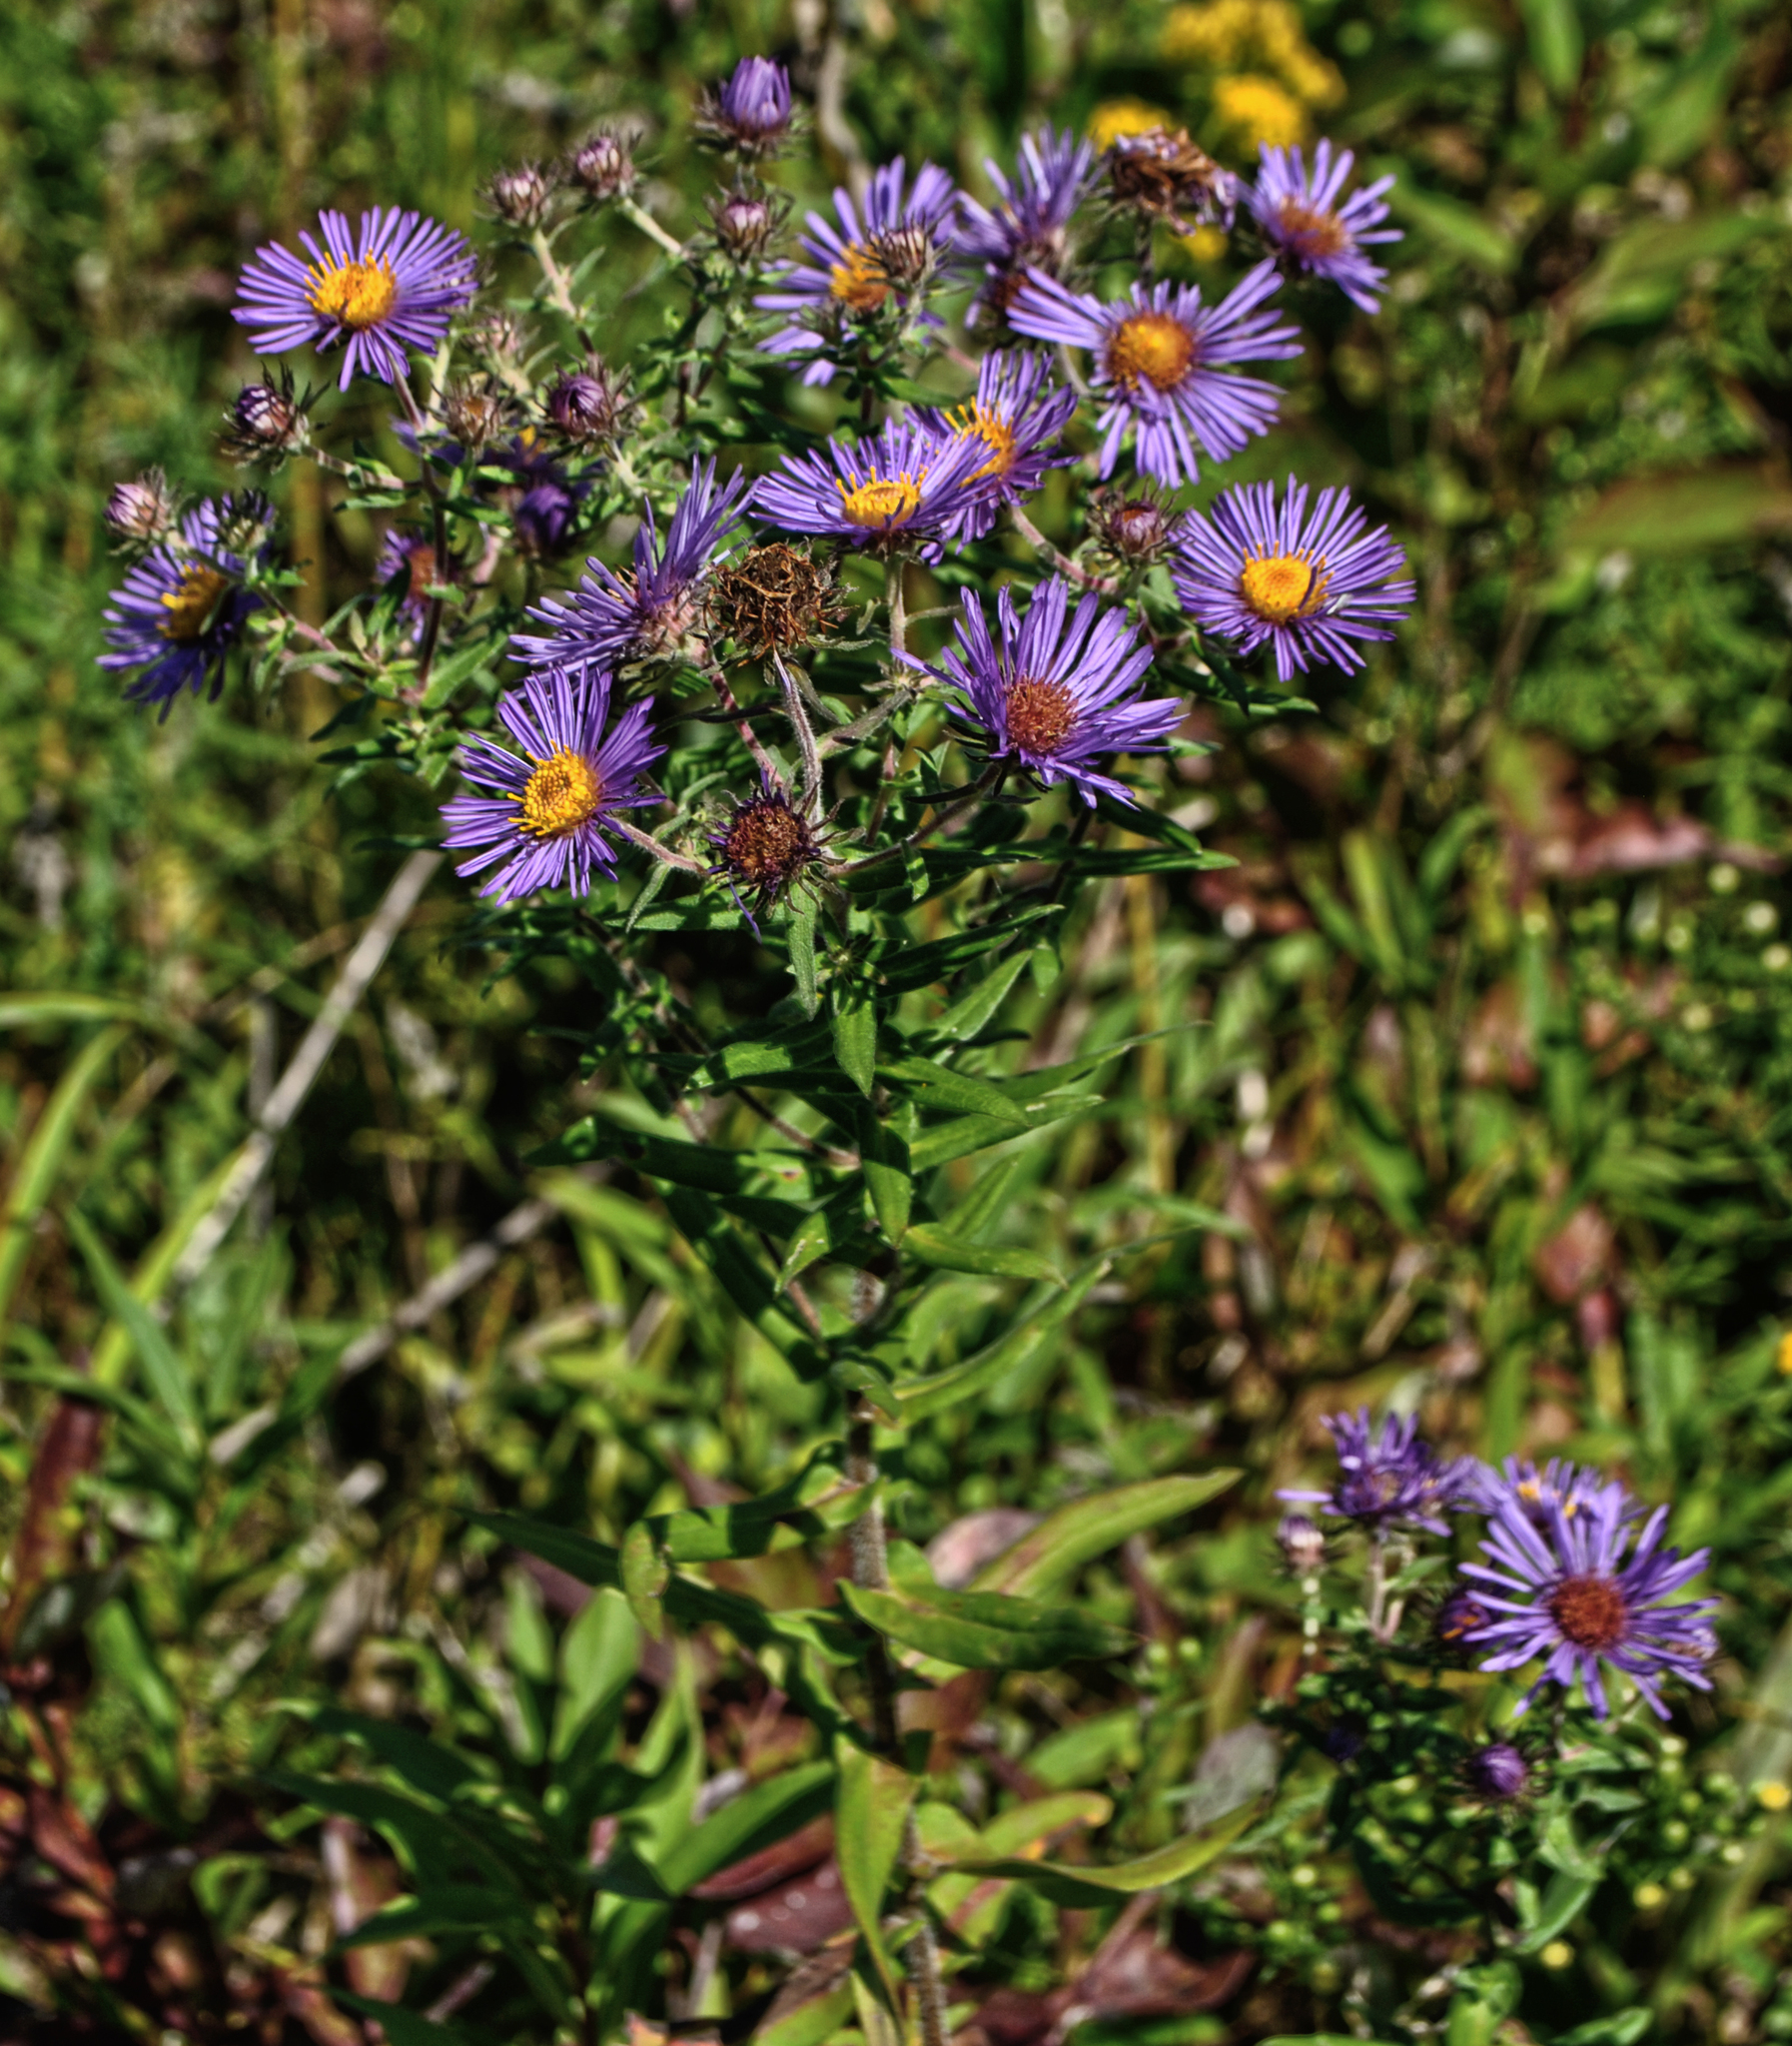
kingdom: Plantae
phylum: Tracheophyta
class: Magnoliopsida
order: Asterales
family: Asteraceae
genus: Symphyotrichum
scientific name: Symphyotrichum novae-angliae
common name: Michaelmas daisy
